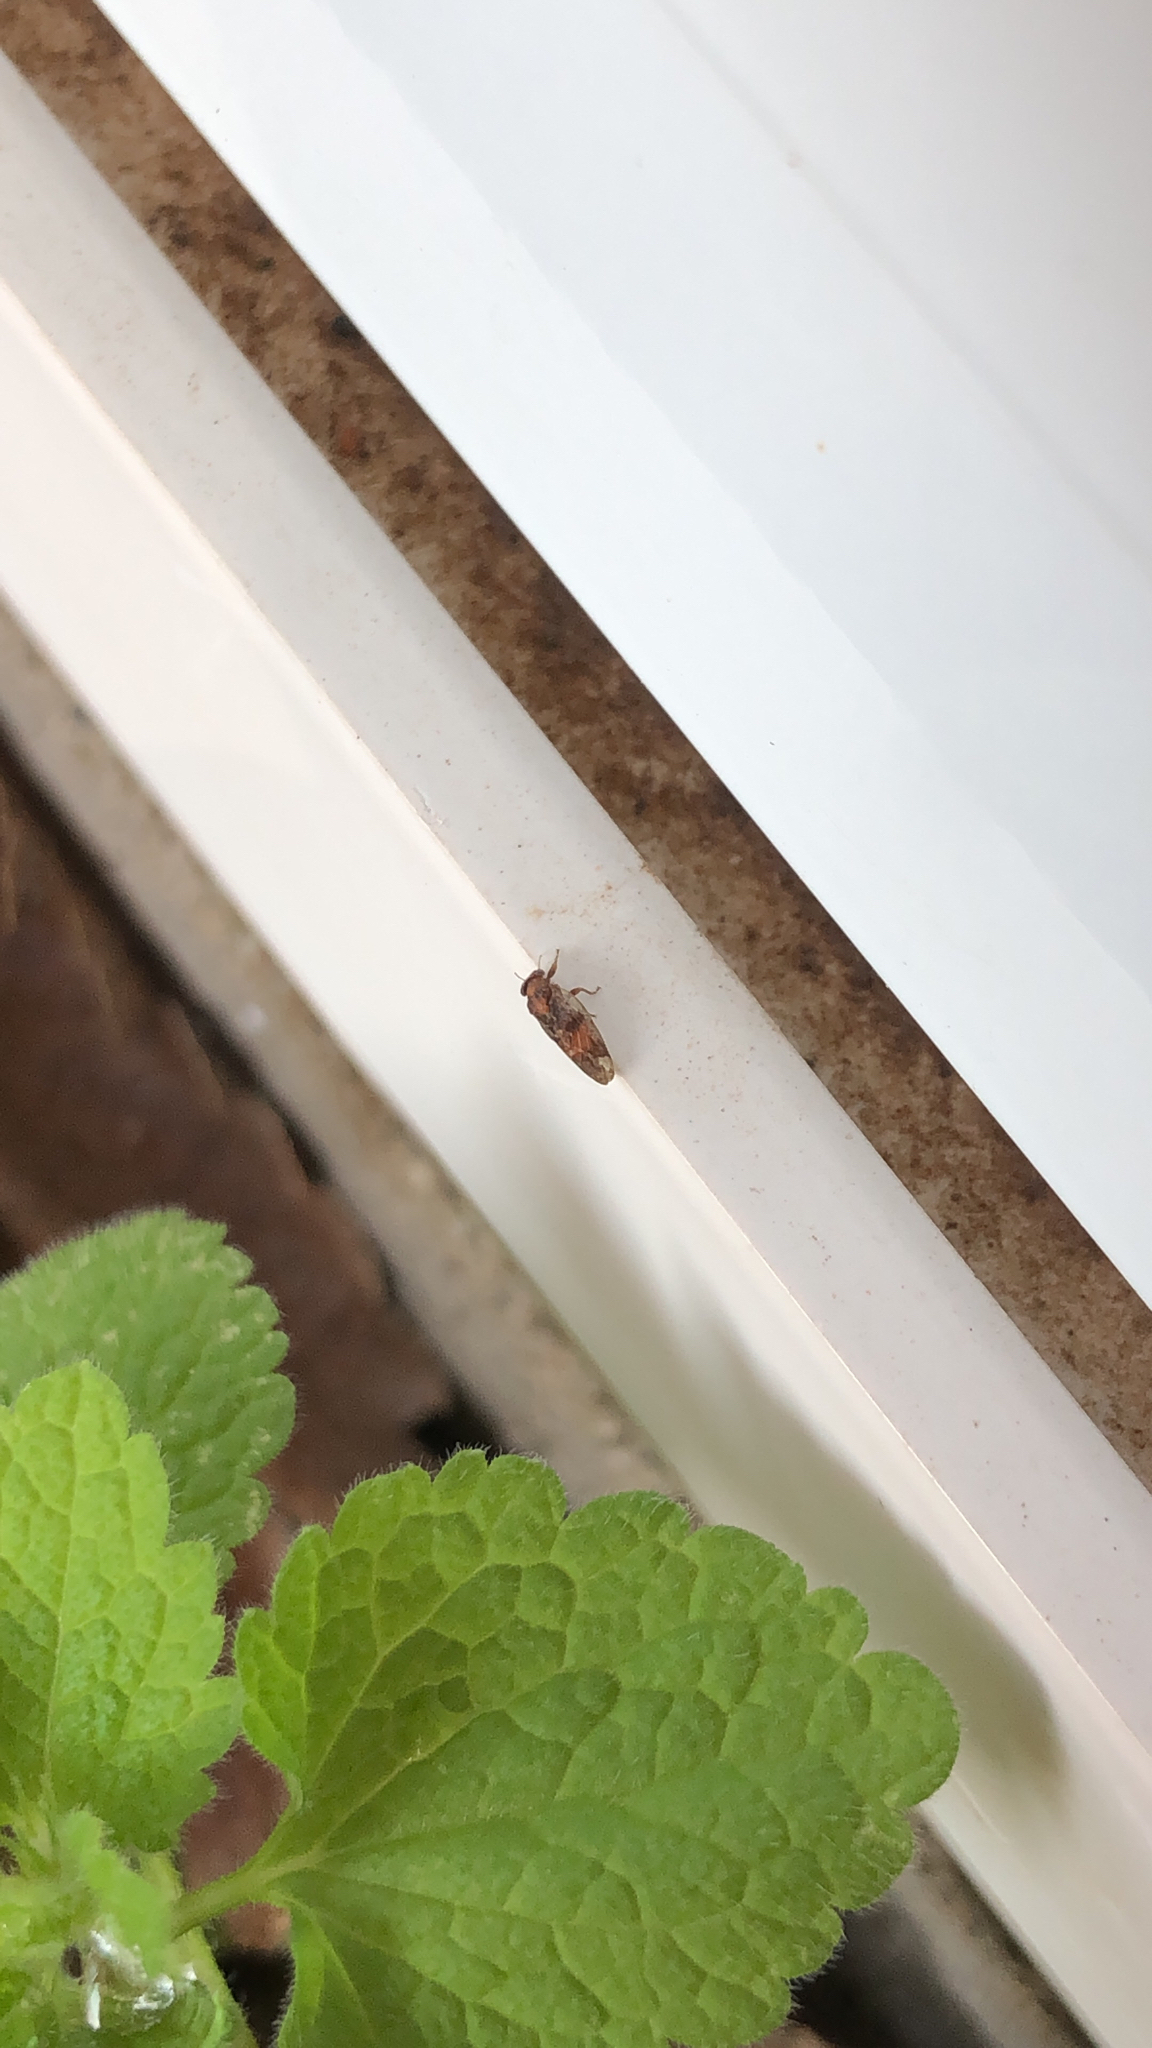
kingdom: Animalia
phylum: Arthropoda
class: Insecta
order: Hemiptera
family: Aphalaridae
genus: Pachypsylla
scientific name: Pachypsylla
